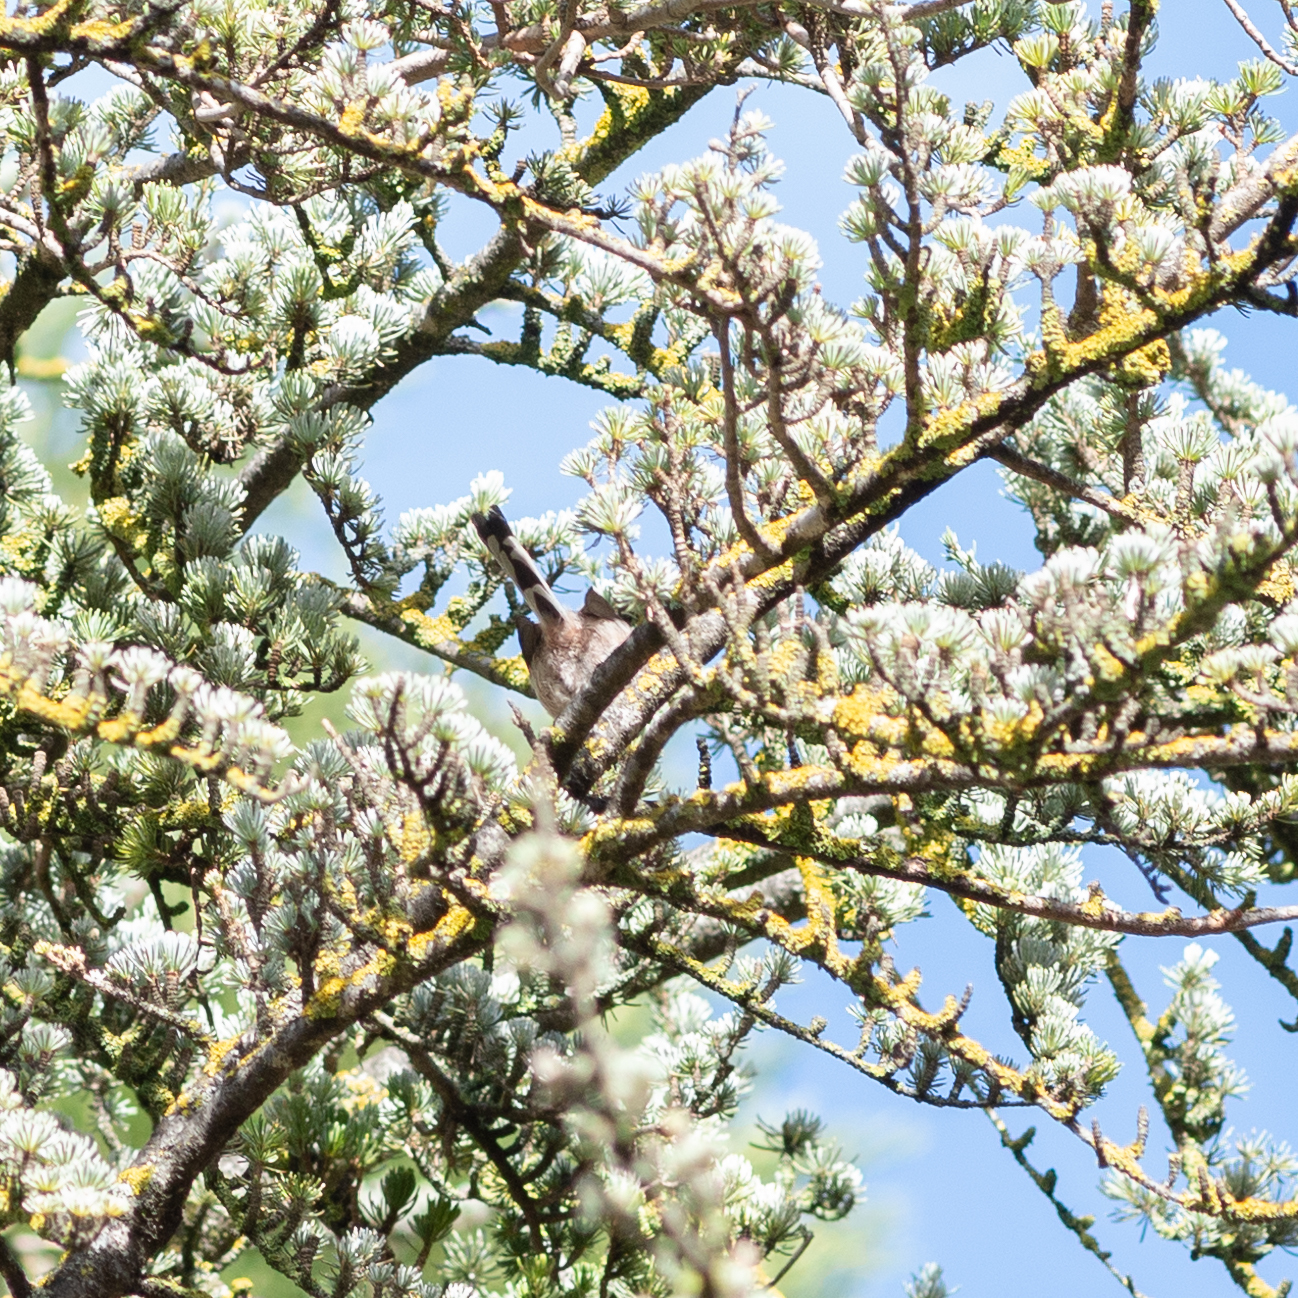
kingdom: Animalia
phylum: Chordata
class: Aves
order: Passeriformes
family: Aegithalidae
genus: Aegithalos
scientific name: Aegithalos caudatus
